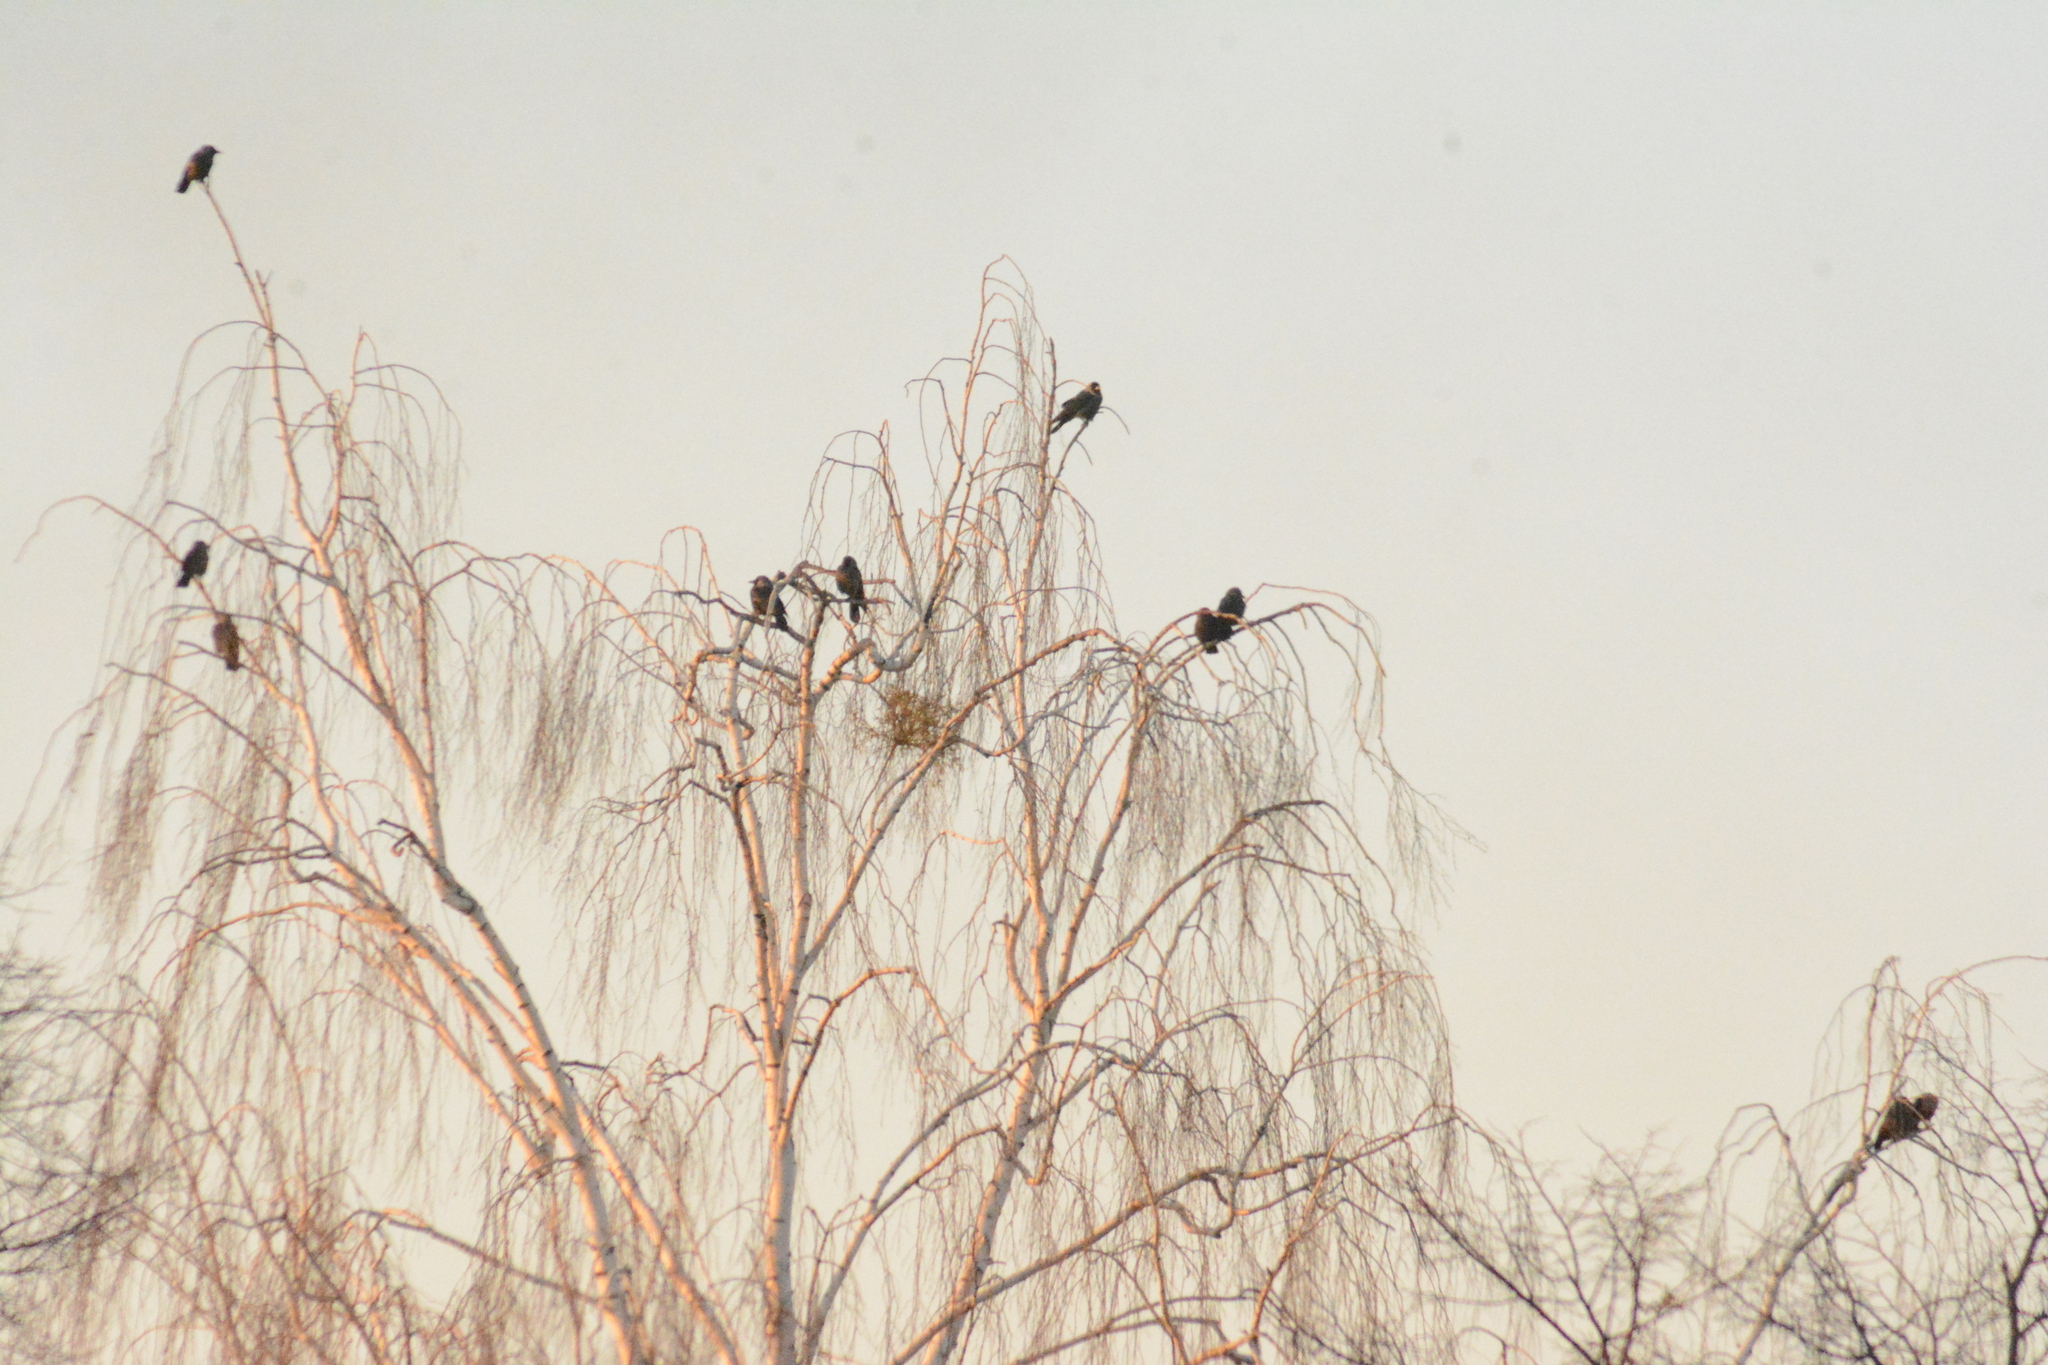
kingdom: Animalia
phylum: Chordata
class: Aves
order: Passeriformes
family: Corvidae
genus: Coloeus
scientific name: Coloeus monedula
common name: Western jackdaw
